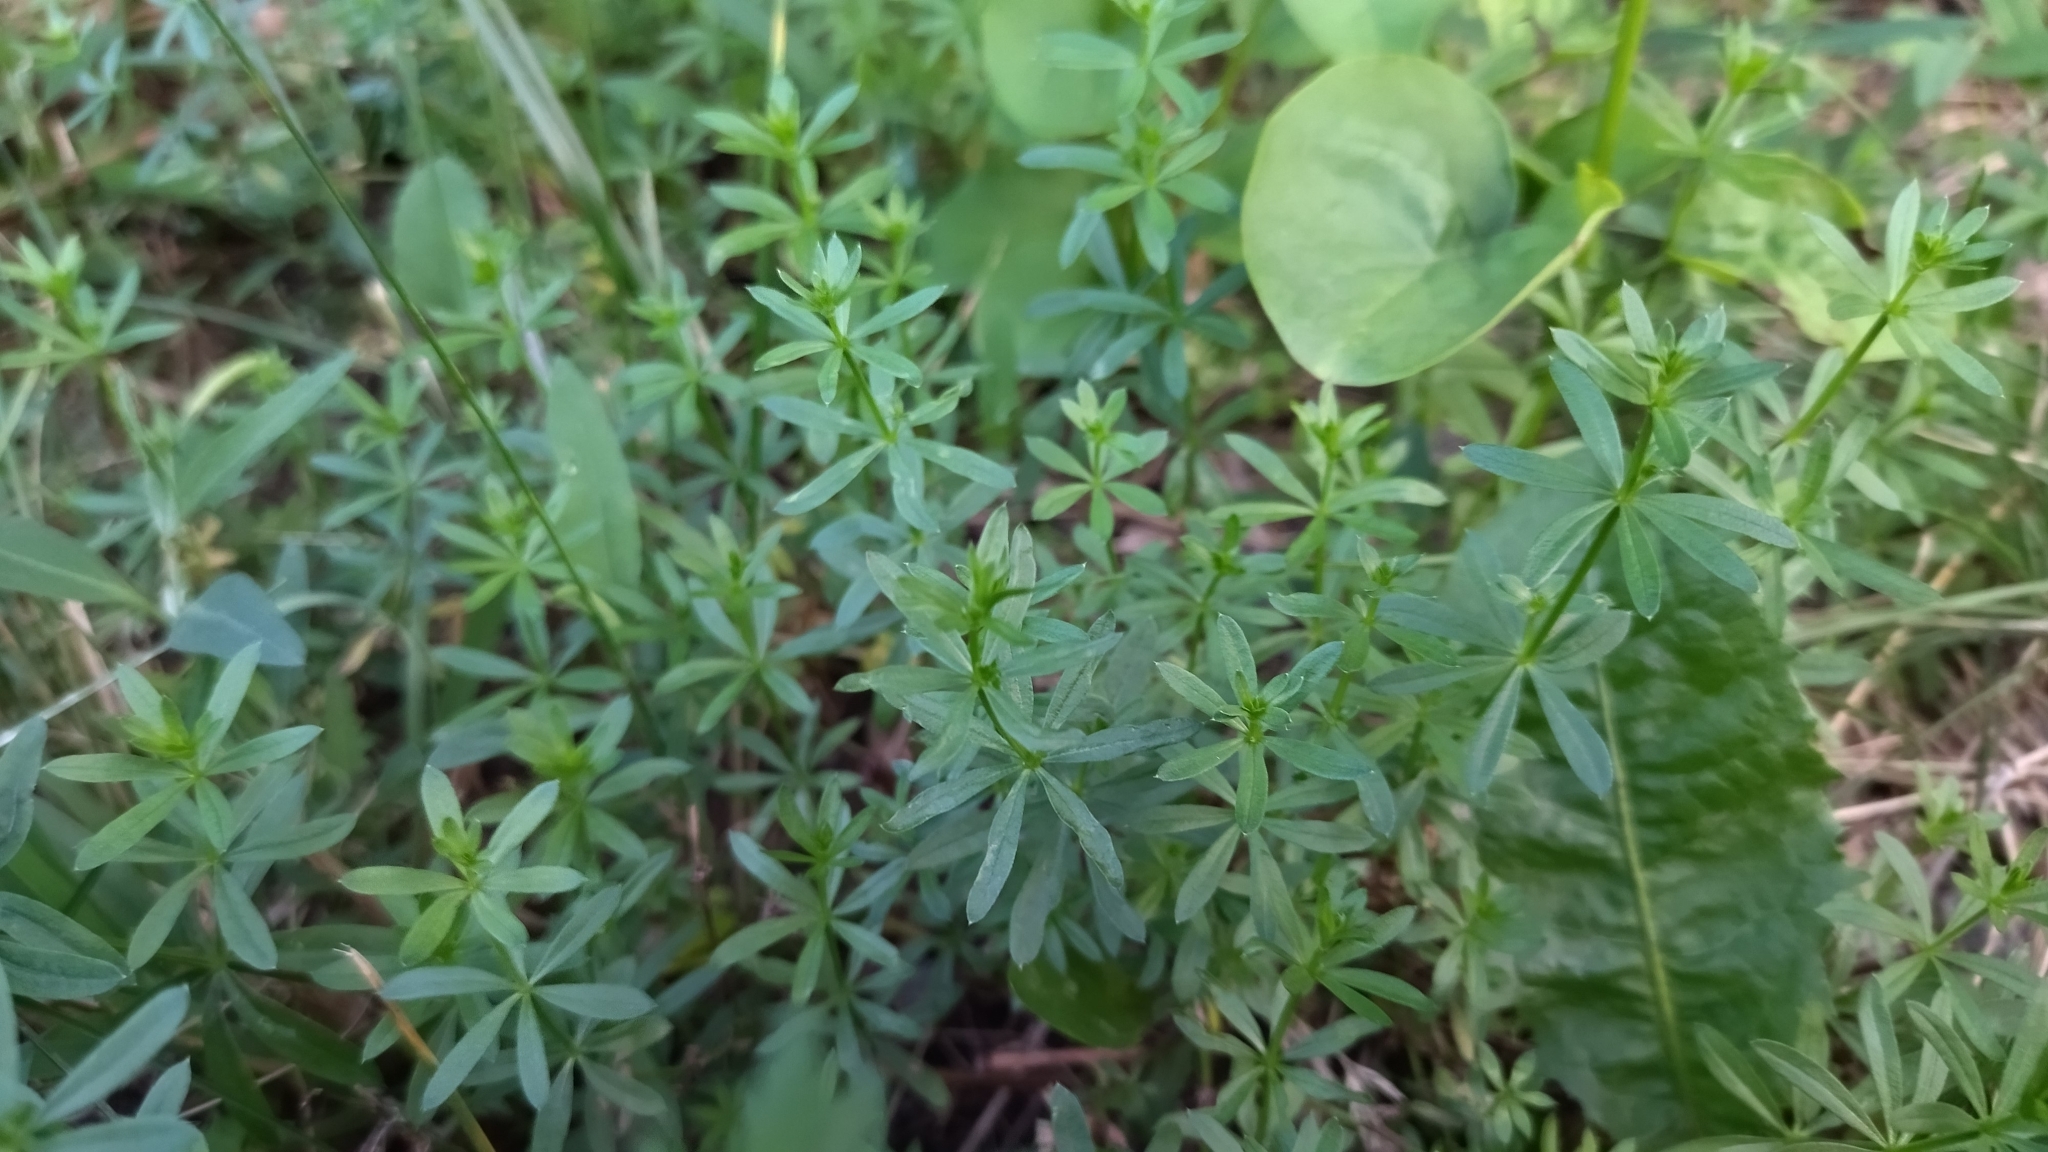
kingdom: Plantae
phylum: Tracheophyta
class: Magnoliopsida
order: Gentianales
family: Rubiaceae
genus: Galium
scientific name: Galium mollugo
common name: Hedge bedstraw
